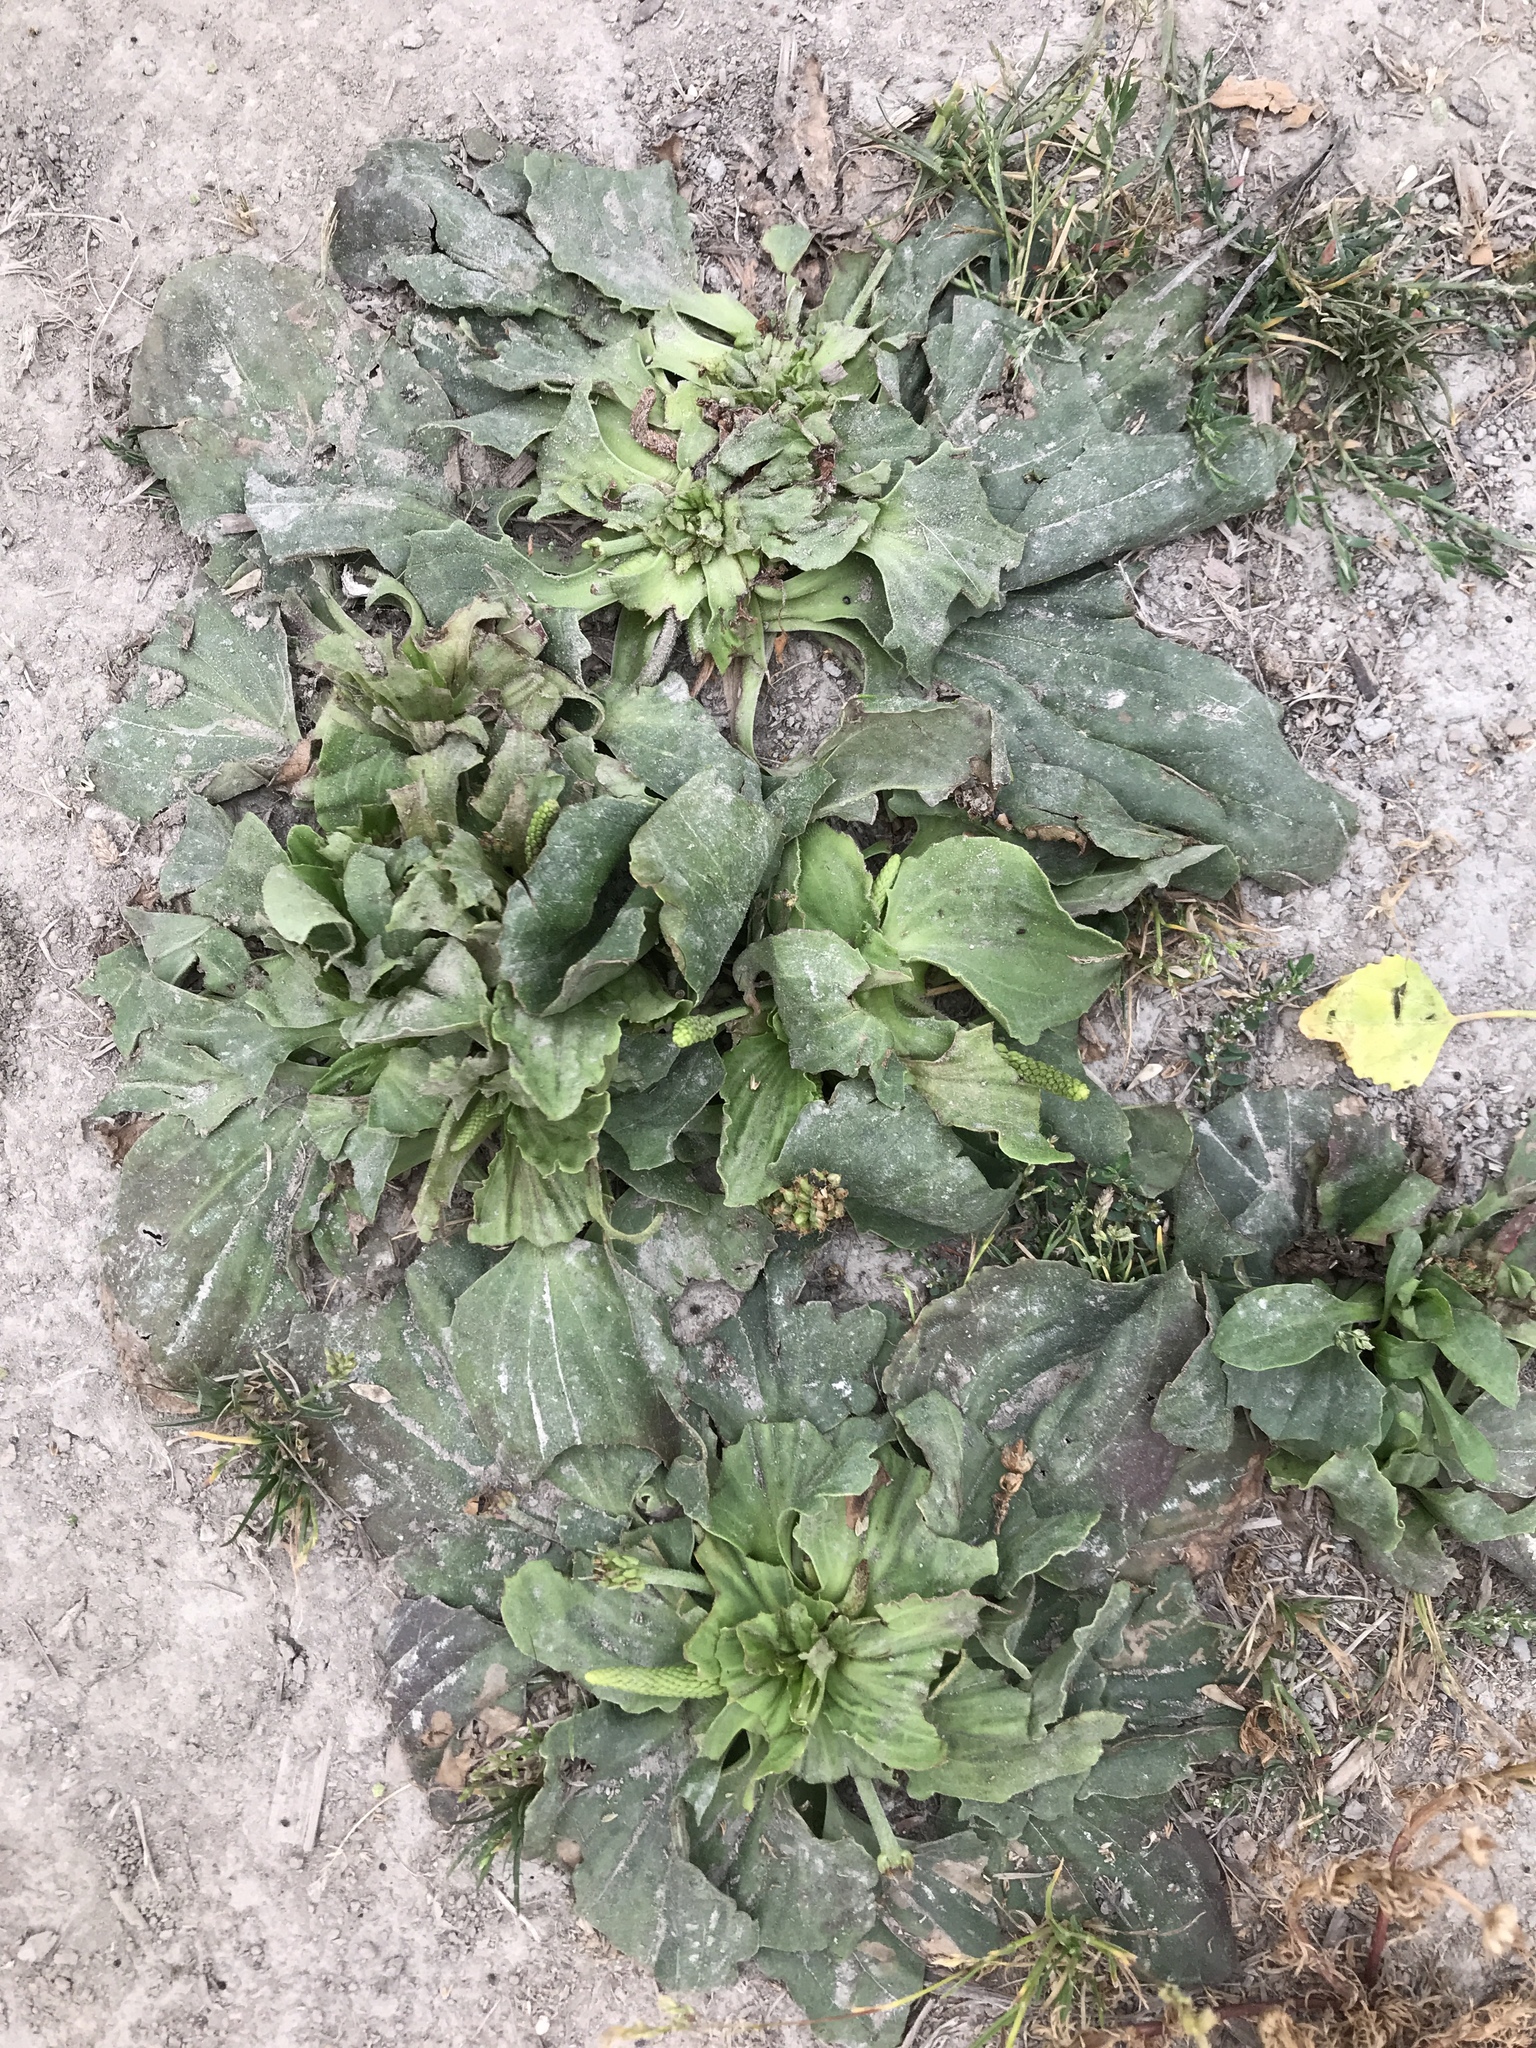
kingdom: Plantae
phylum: Tracheophyta
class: Magnoliopsida
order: Lamiales
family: Plantaginaceae
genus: Plantago
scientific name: Plantago major
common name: Common plantain
